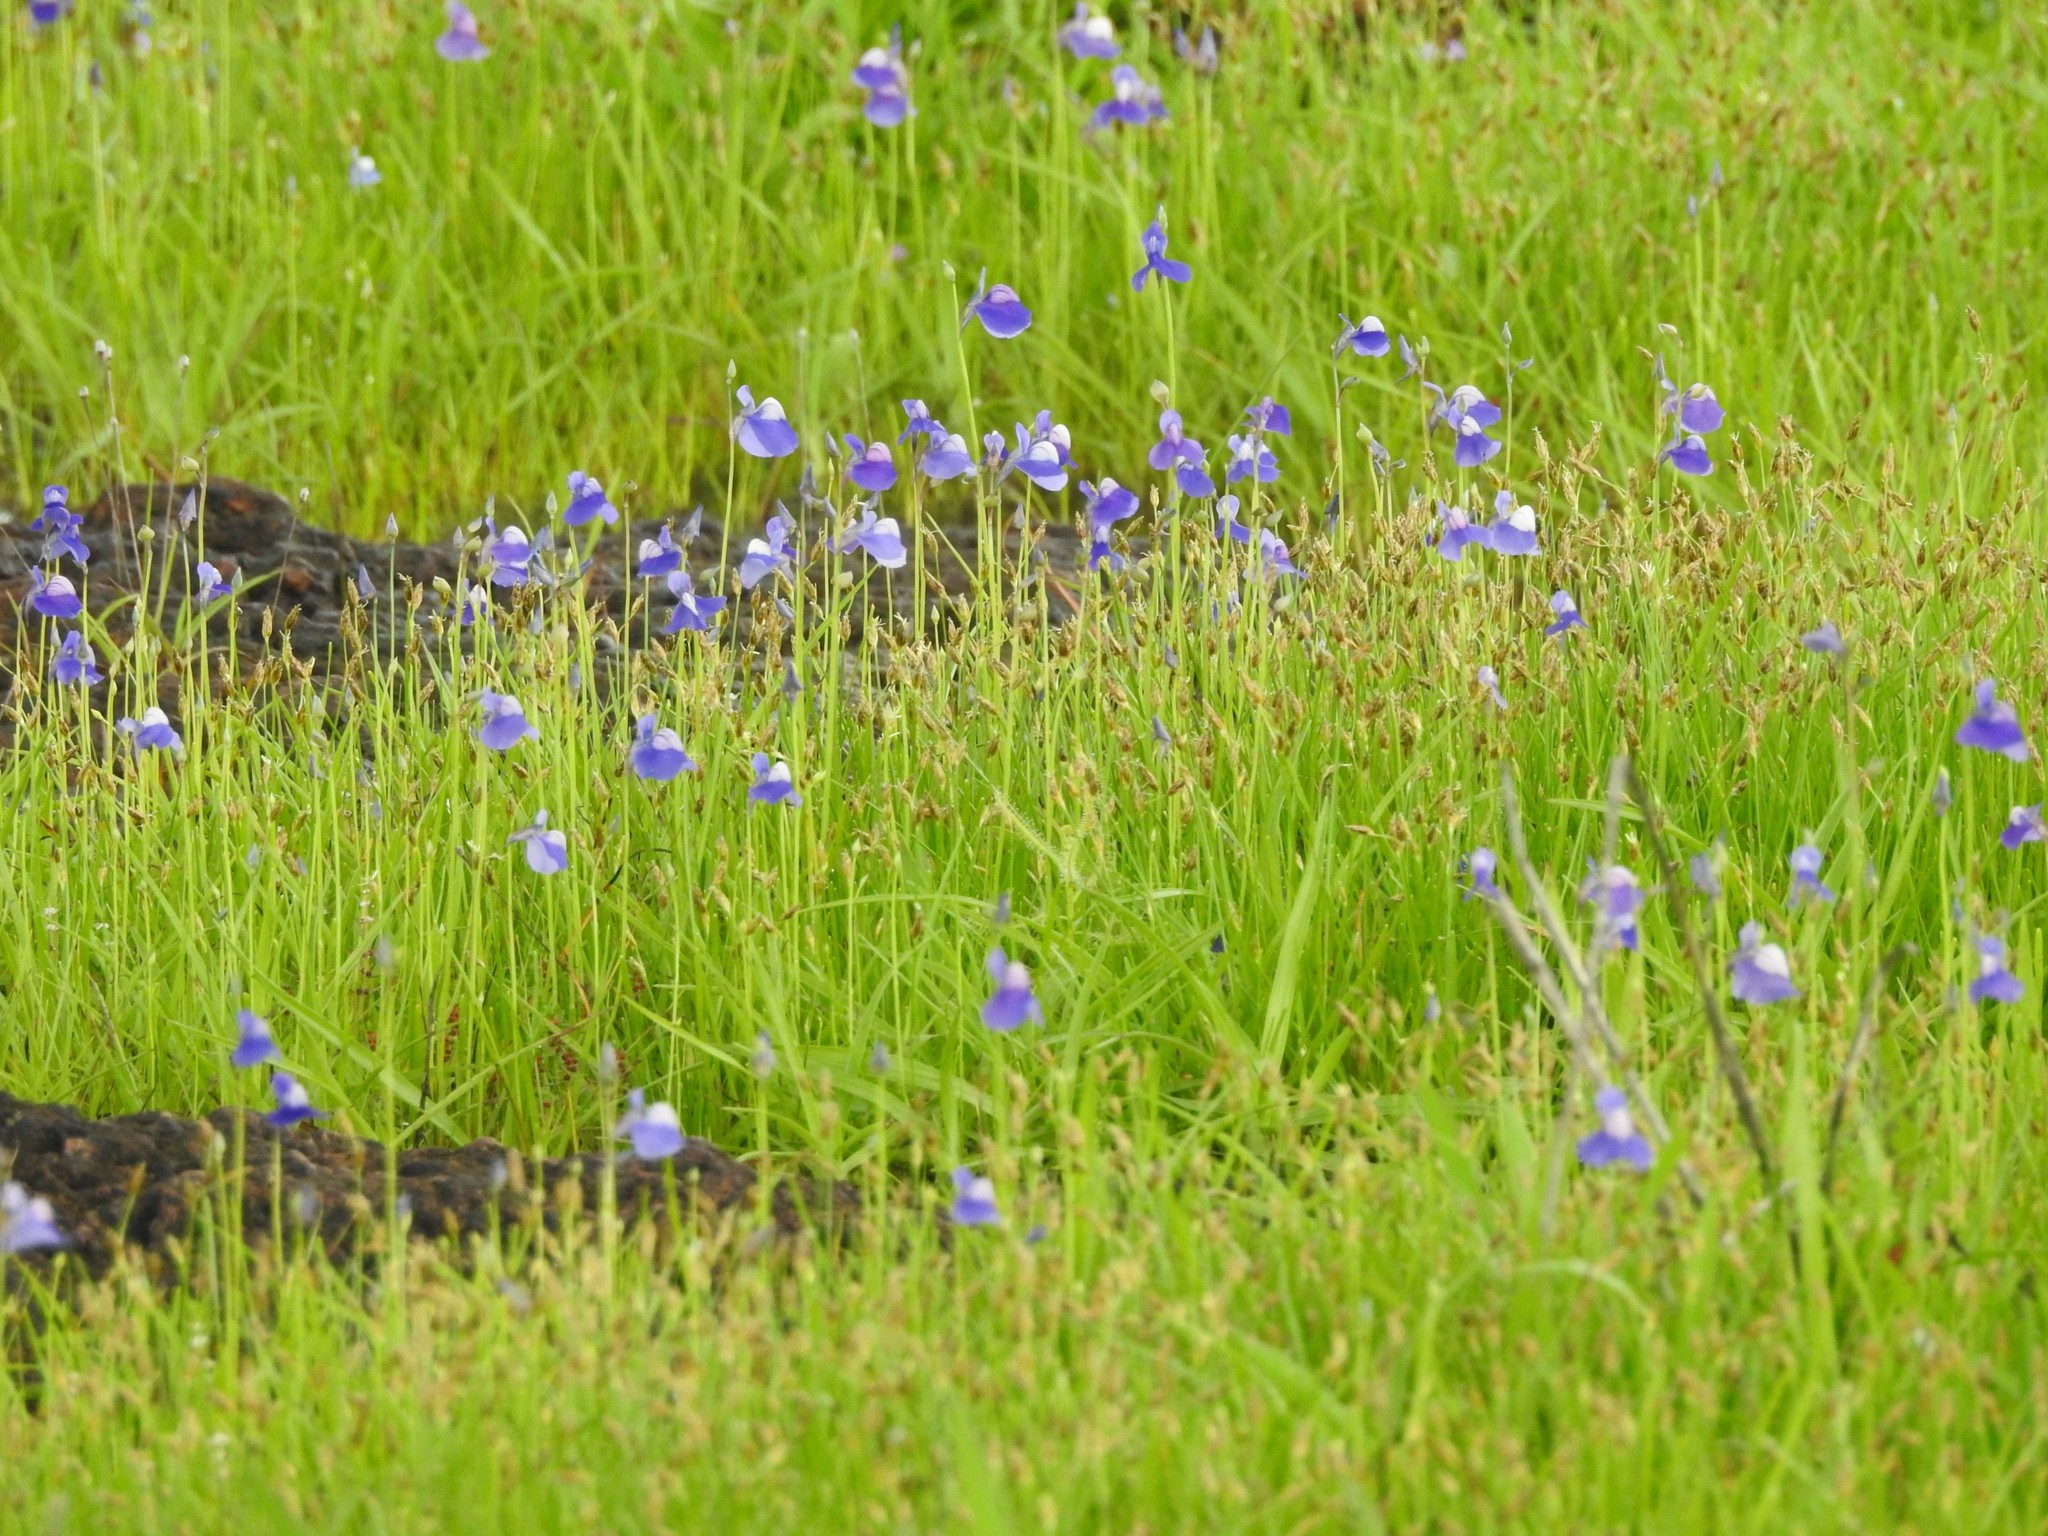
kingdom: Plantae
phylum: Tracheophyta
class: Magnoliopsida
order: Lamiales
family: Lentibulariaceae
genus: Utricularia
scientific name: Utricularia reticulata
